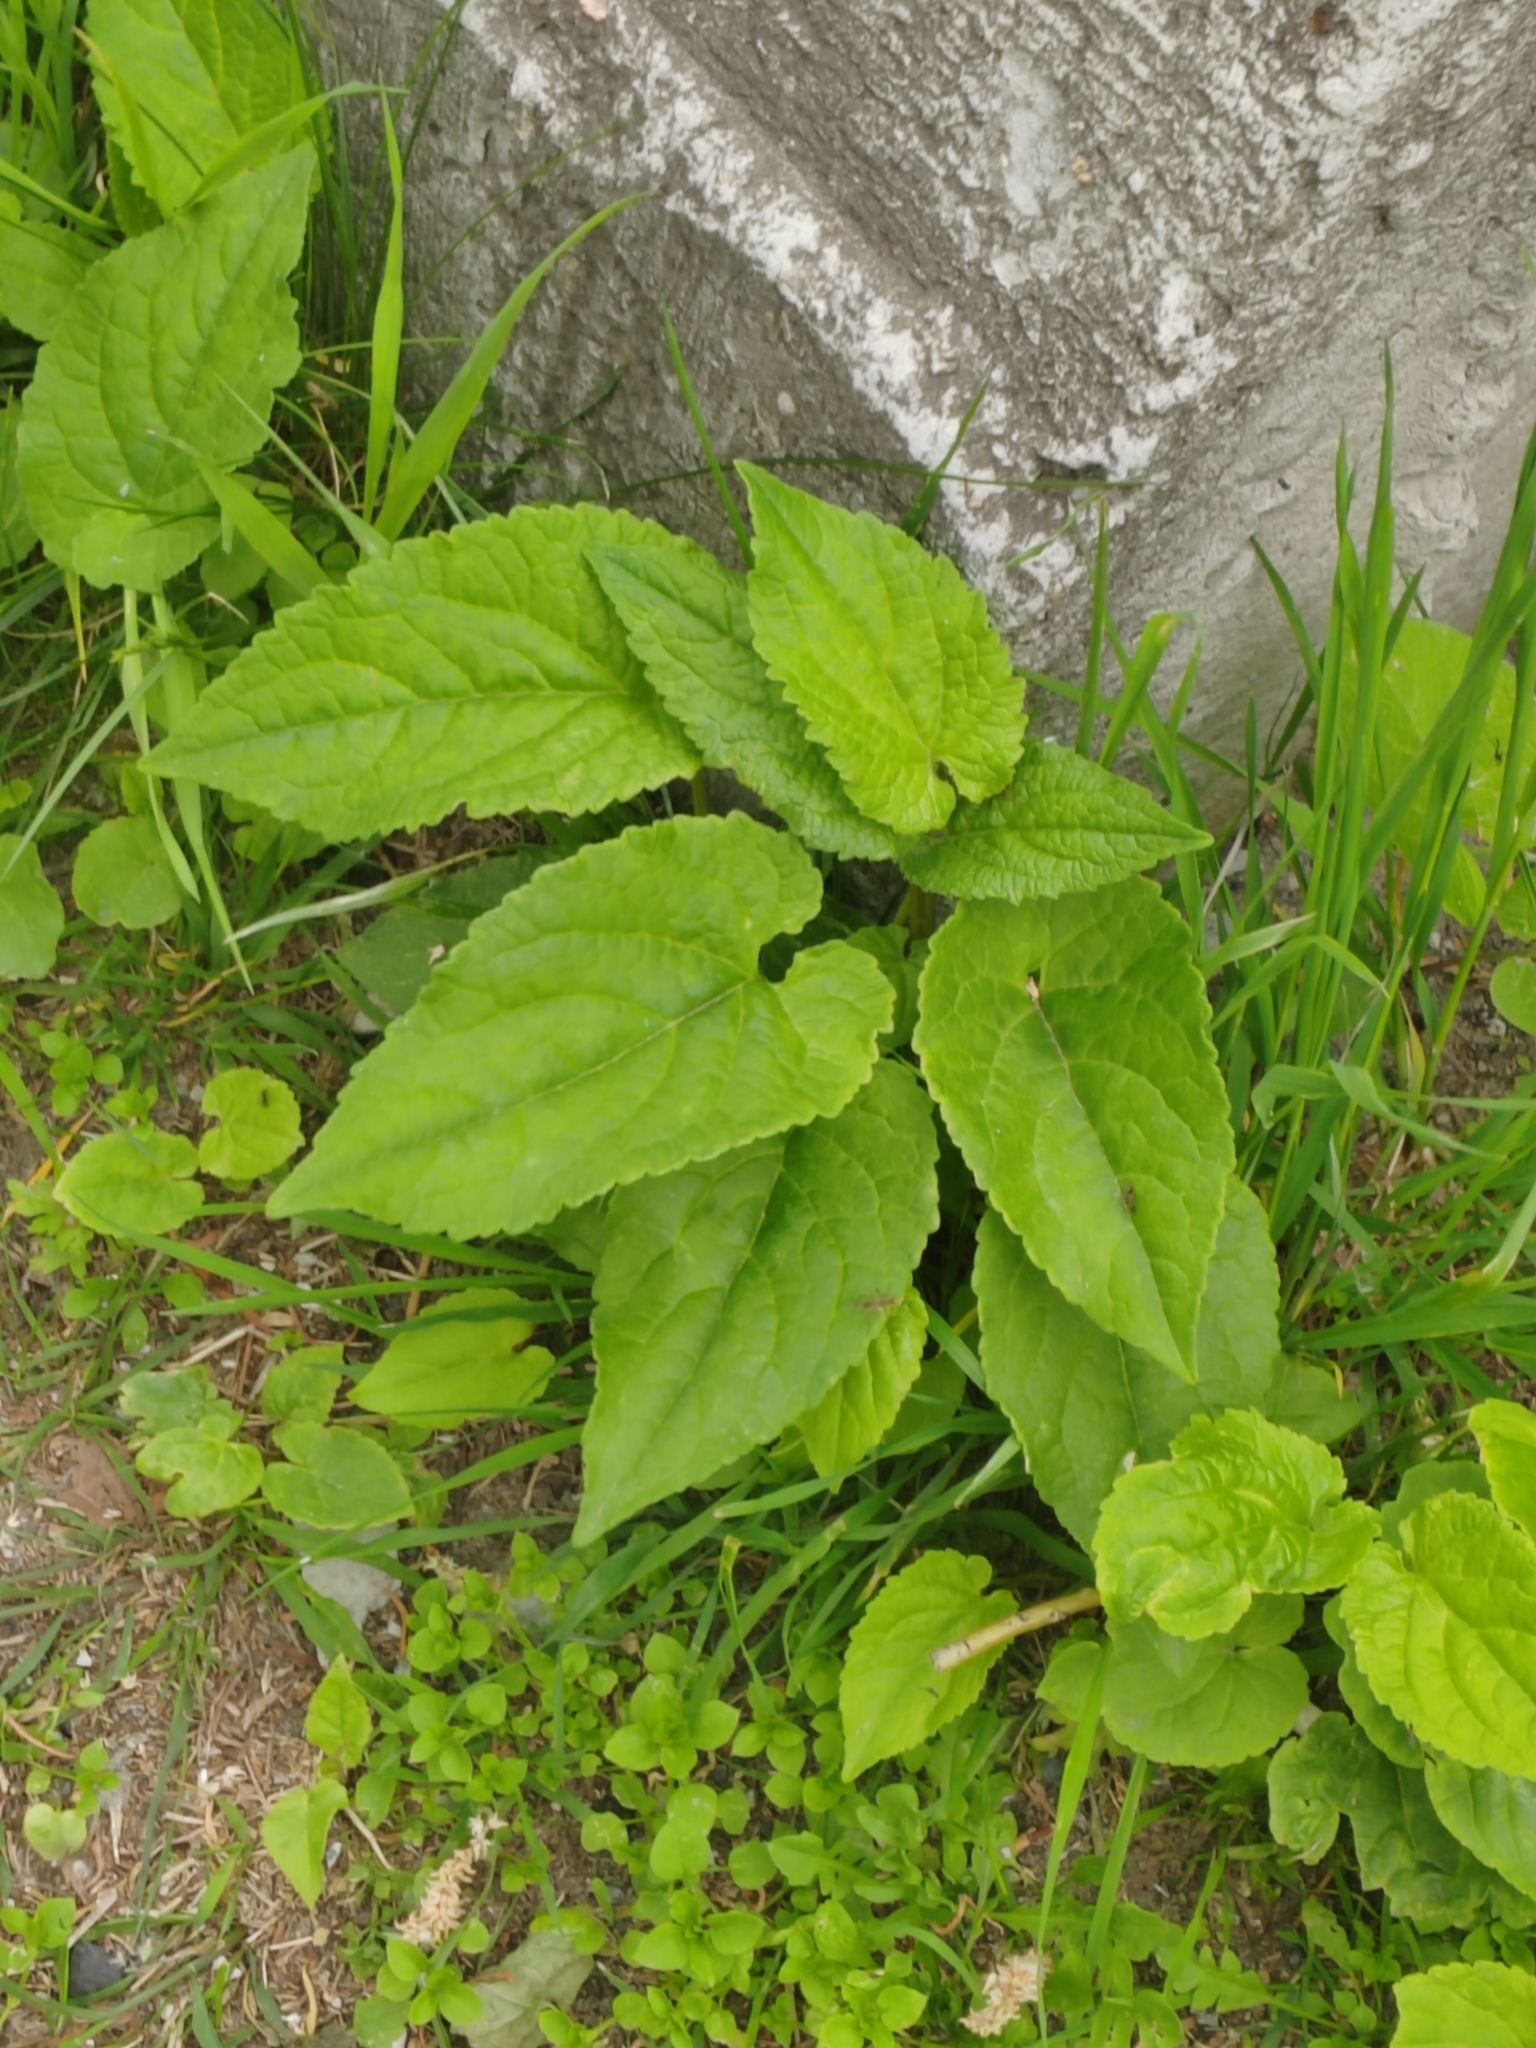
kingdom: Plantae
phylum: Tracheophyta
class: Magnoliopsida
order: Asterales
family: Campanulaceae
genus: Campanula
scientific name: Campanula rapunculoides
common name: Creeping bellflower
